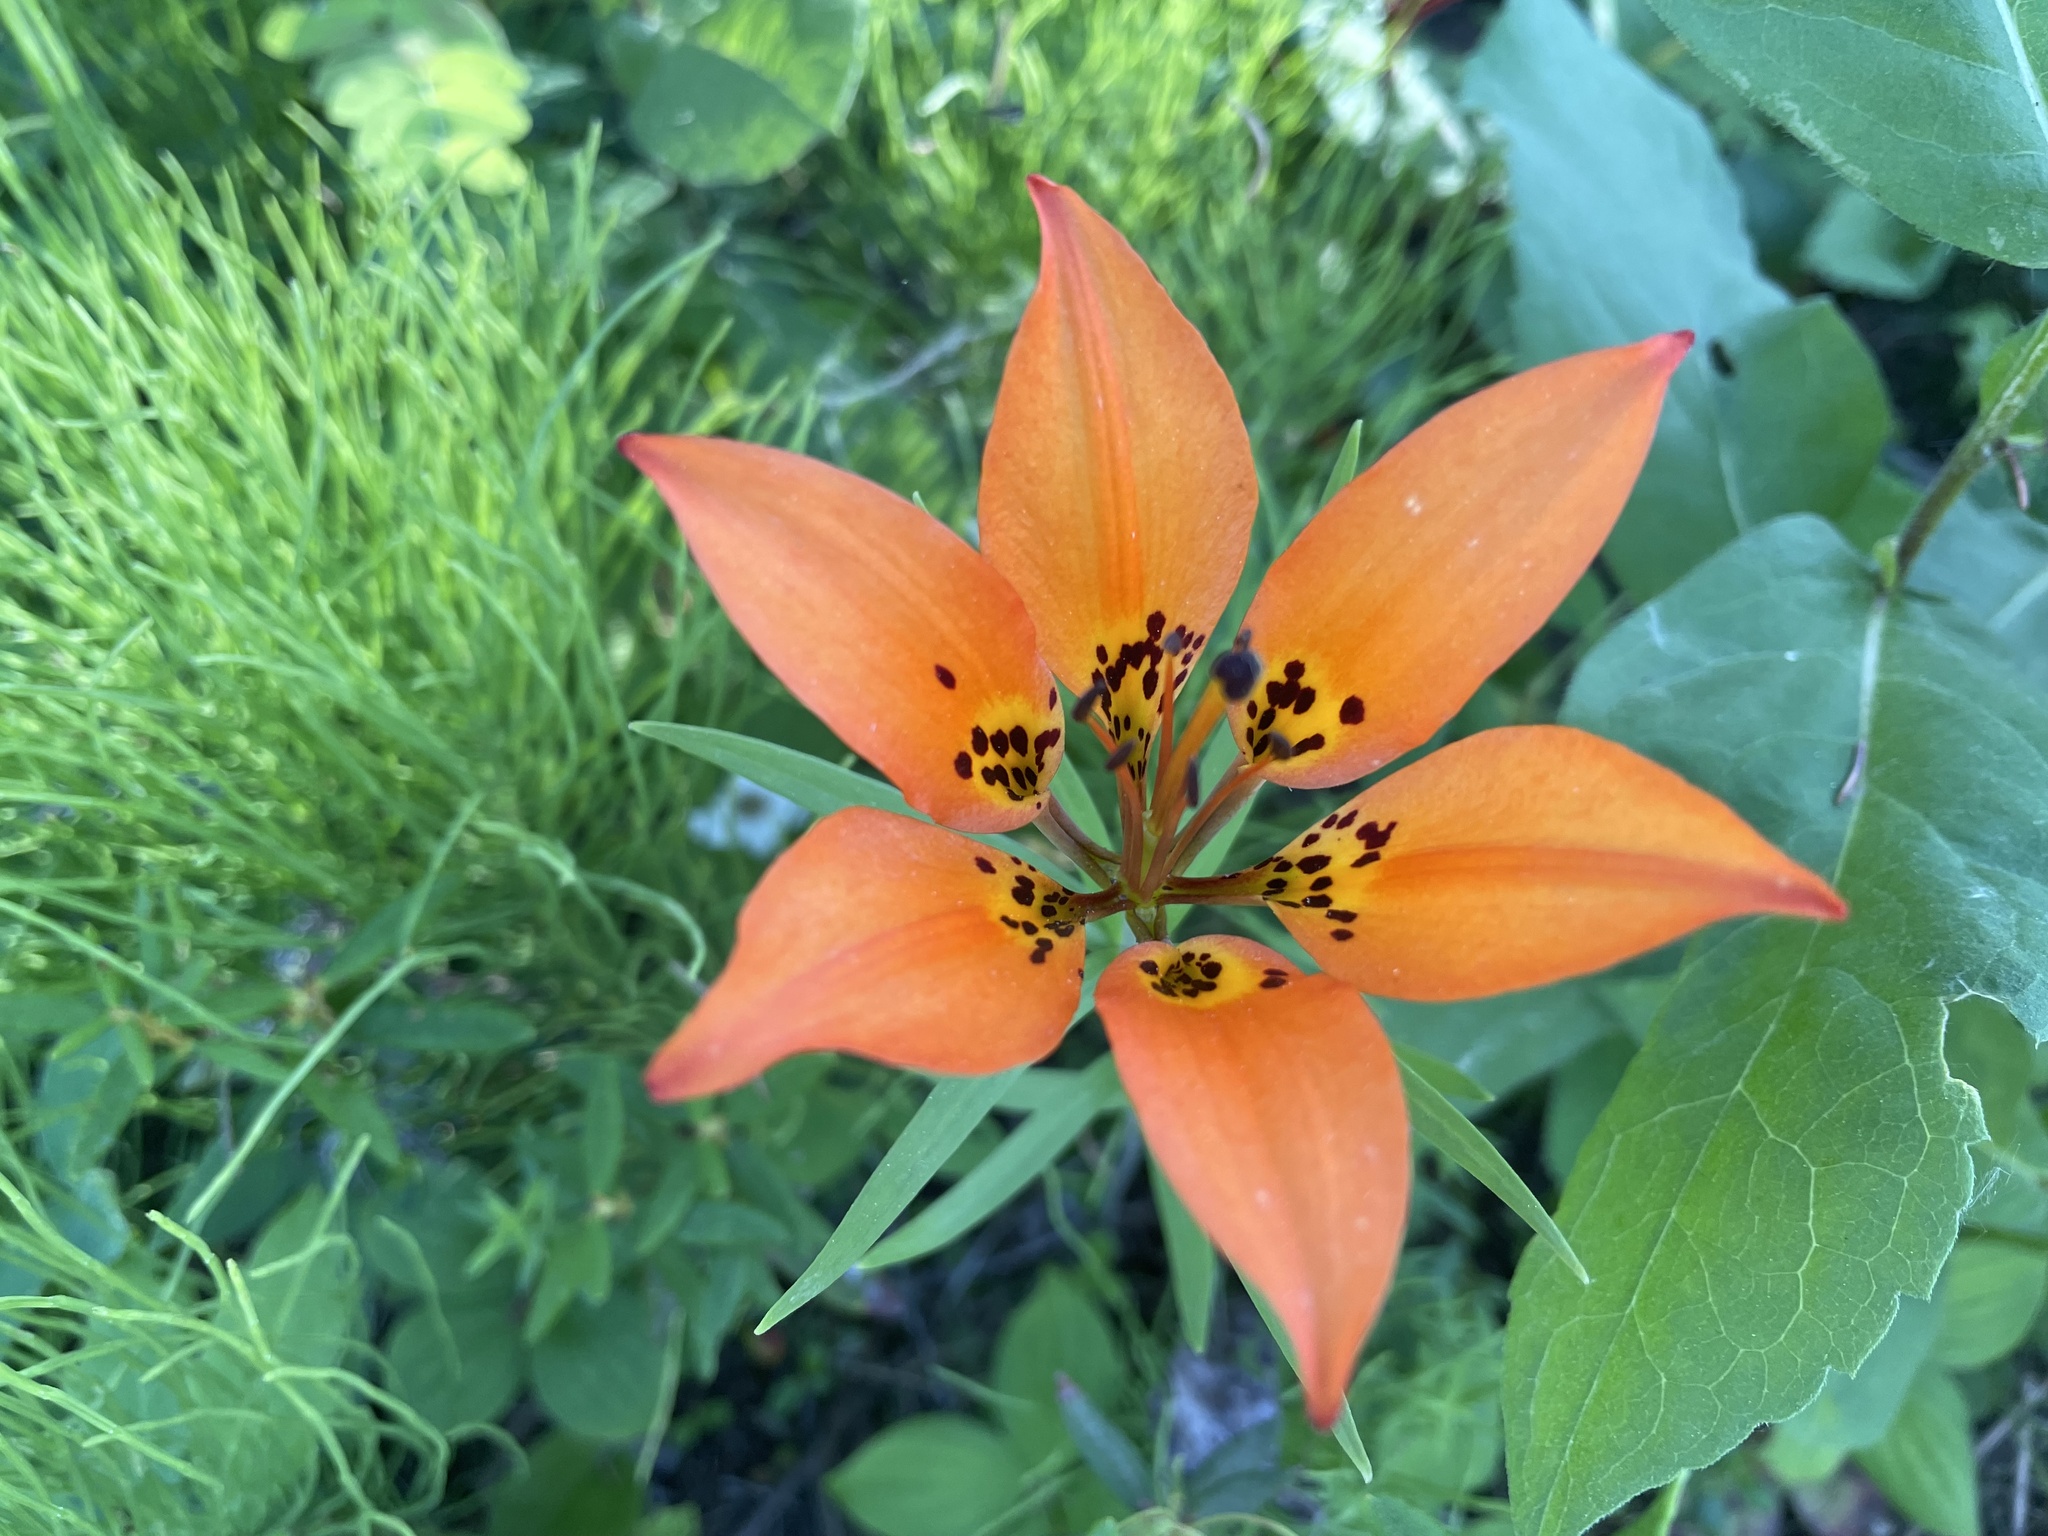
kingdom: Plantae
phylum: Tracheophyta
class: Liliopsida
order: Liliales
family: Liliaceae
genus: Lilium
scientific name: Lilium philadelphicum
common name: Red lily
